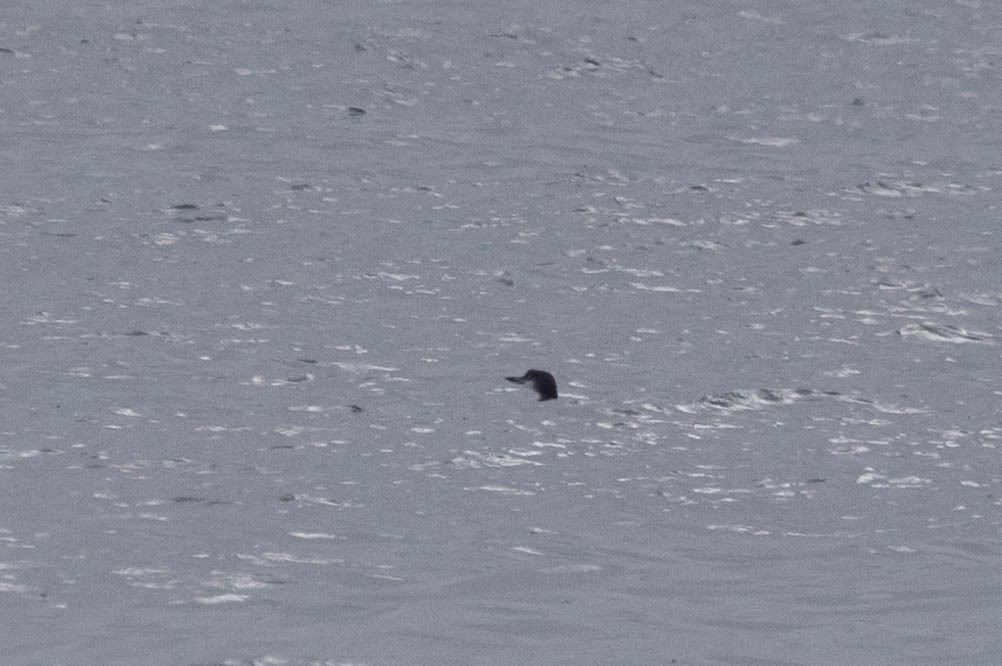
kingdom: Animalia
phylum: Chordata
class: Aves
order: Gaviiformes
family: Gaviidae
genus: Gavia
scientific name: Gavia immer
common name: Common loon
